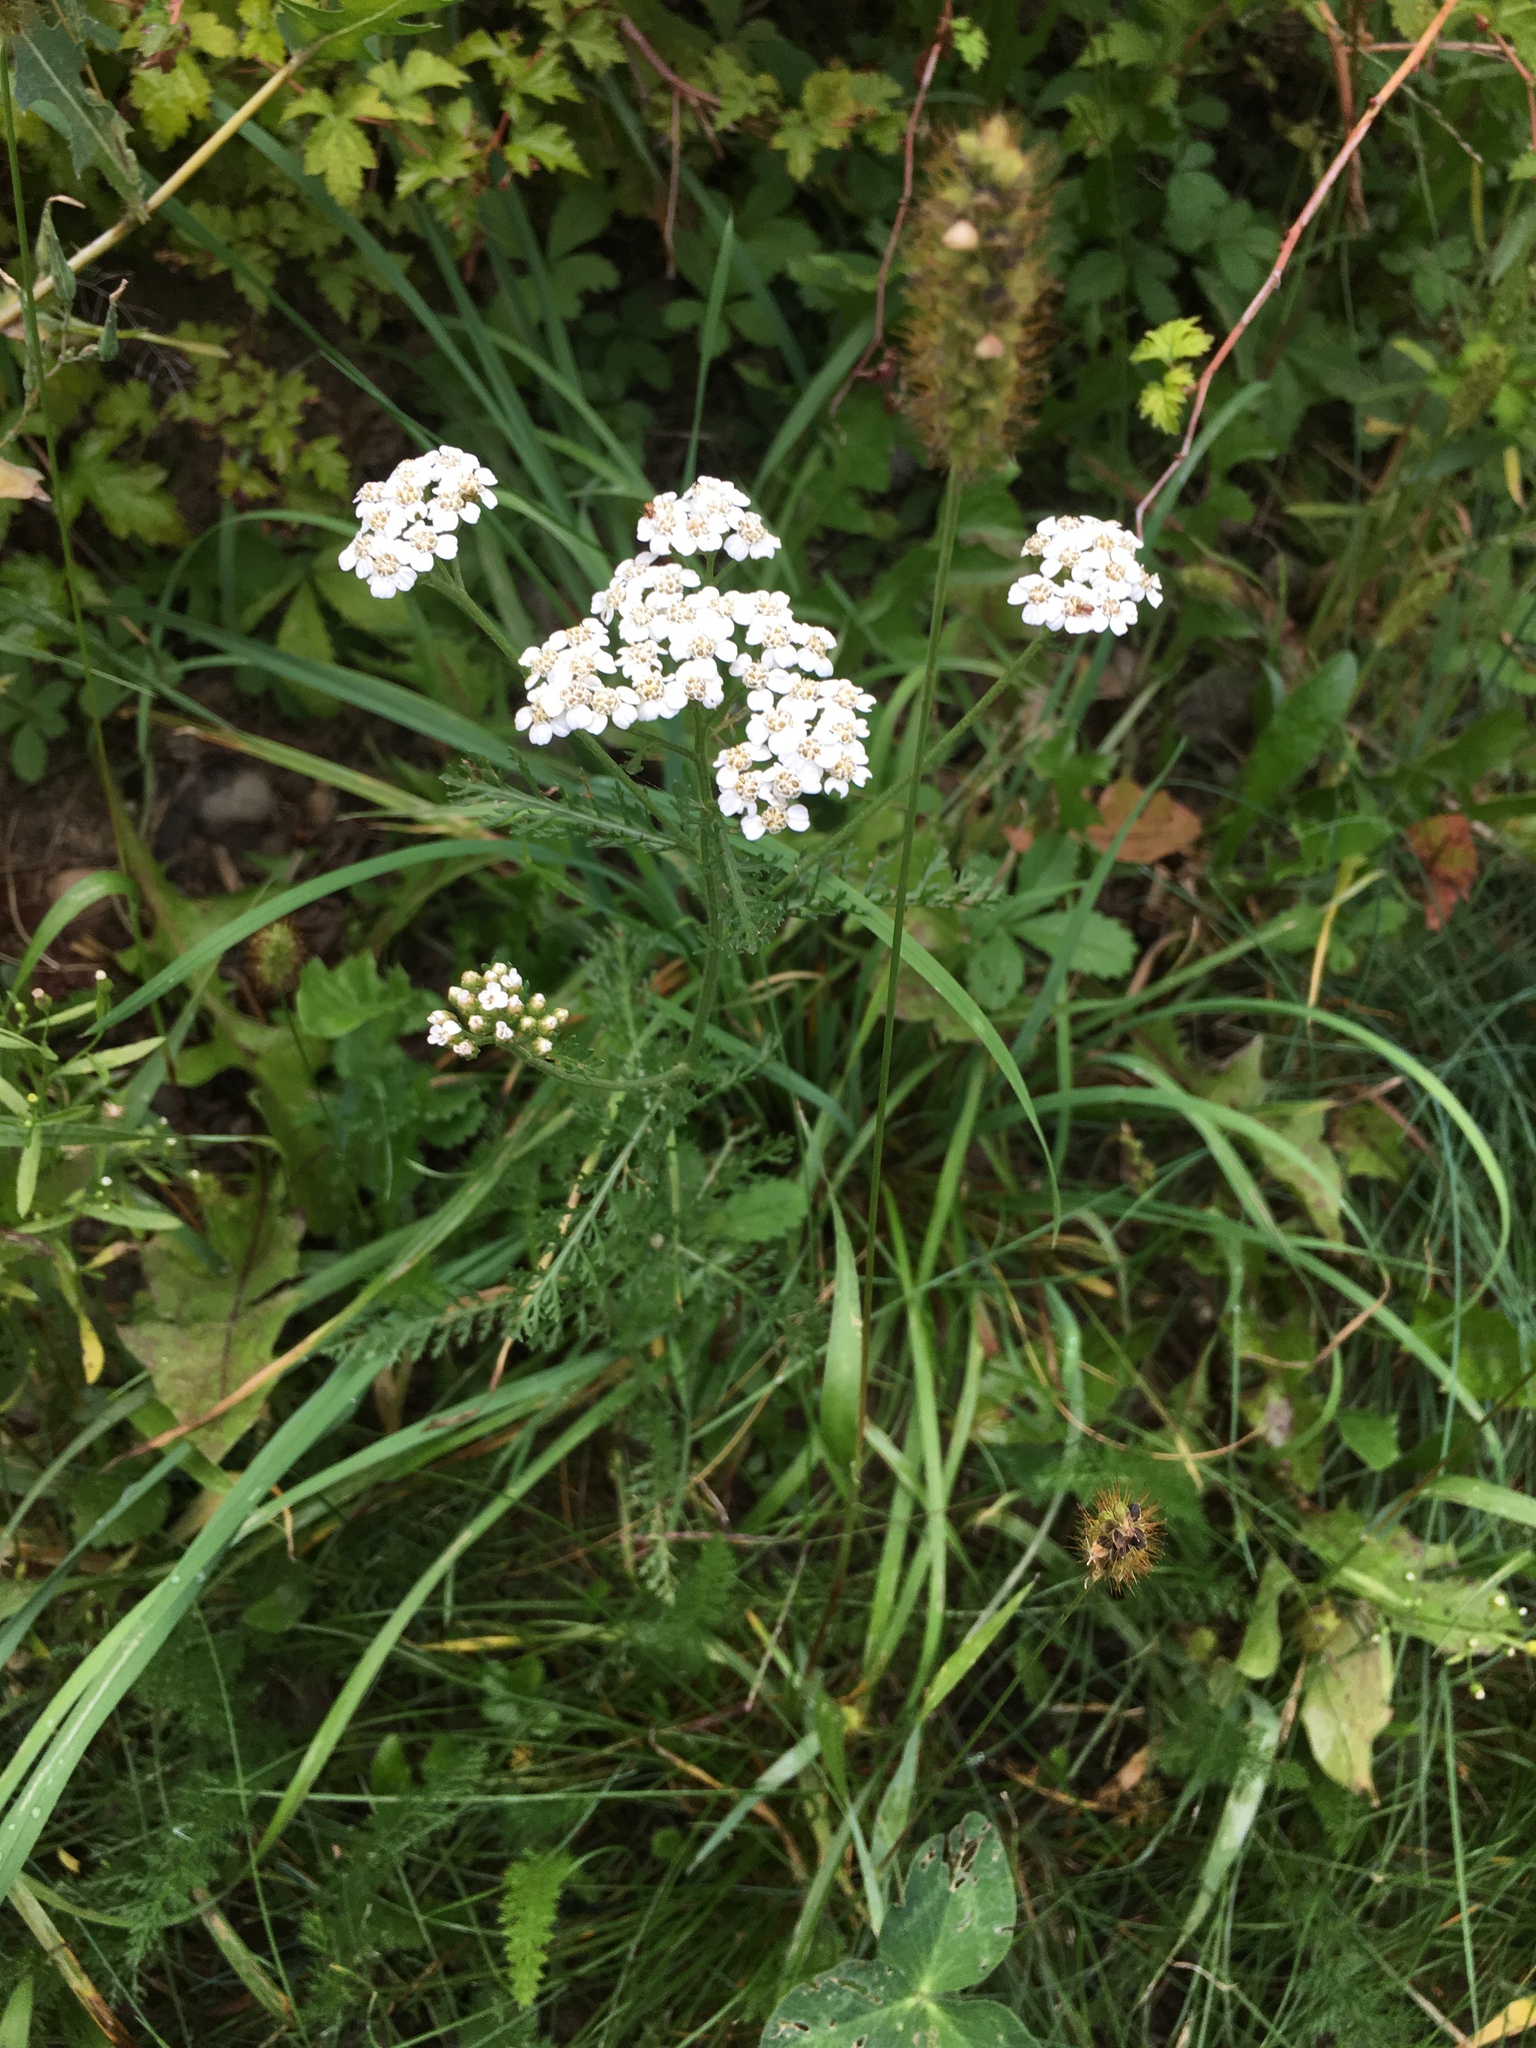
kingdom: Plantae
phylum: Tracheophyta
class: Magnoliopsida
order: Asterales
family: Asteraceae
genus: Achillea
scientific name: Achillea millefolium
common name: Yarrow
